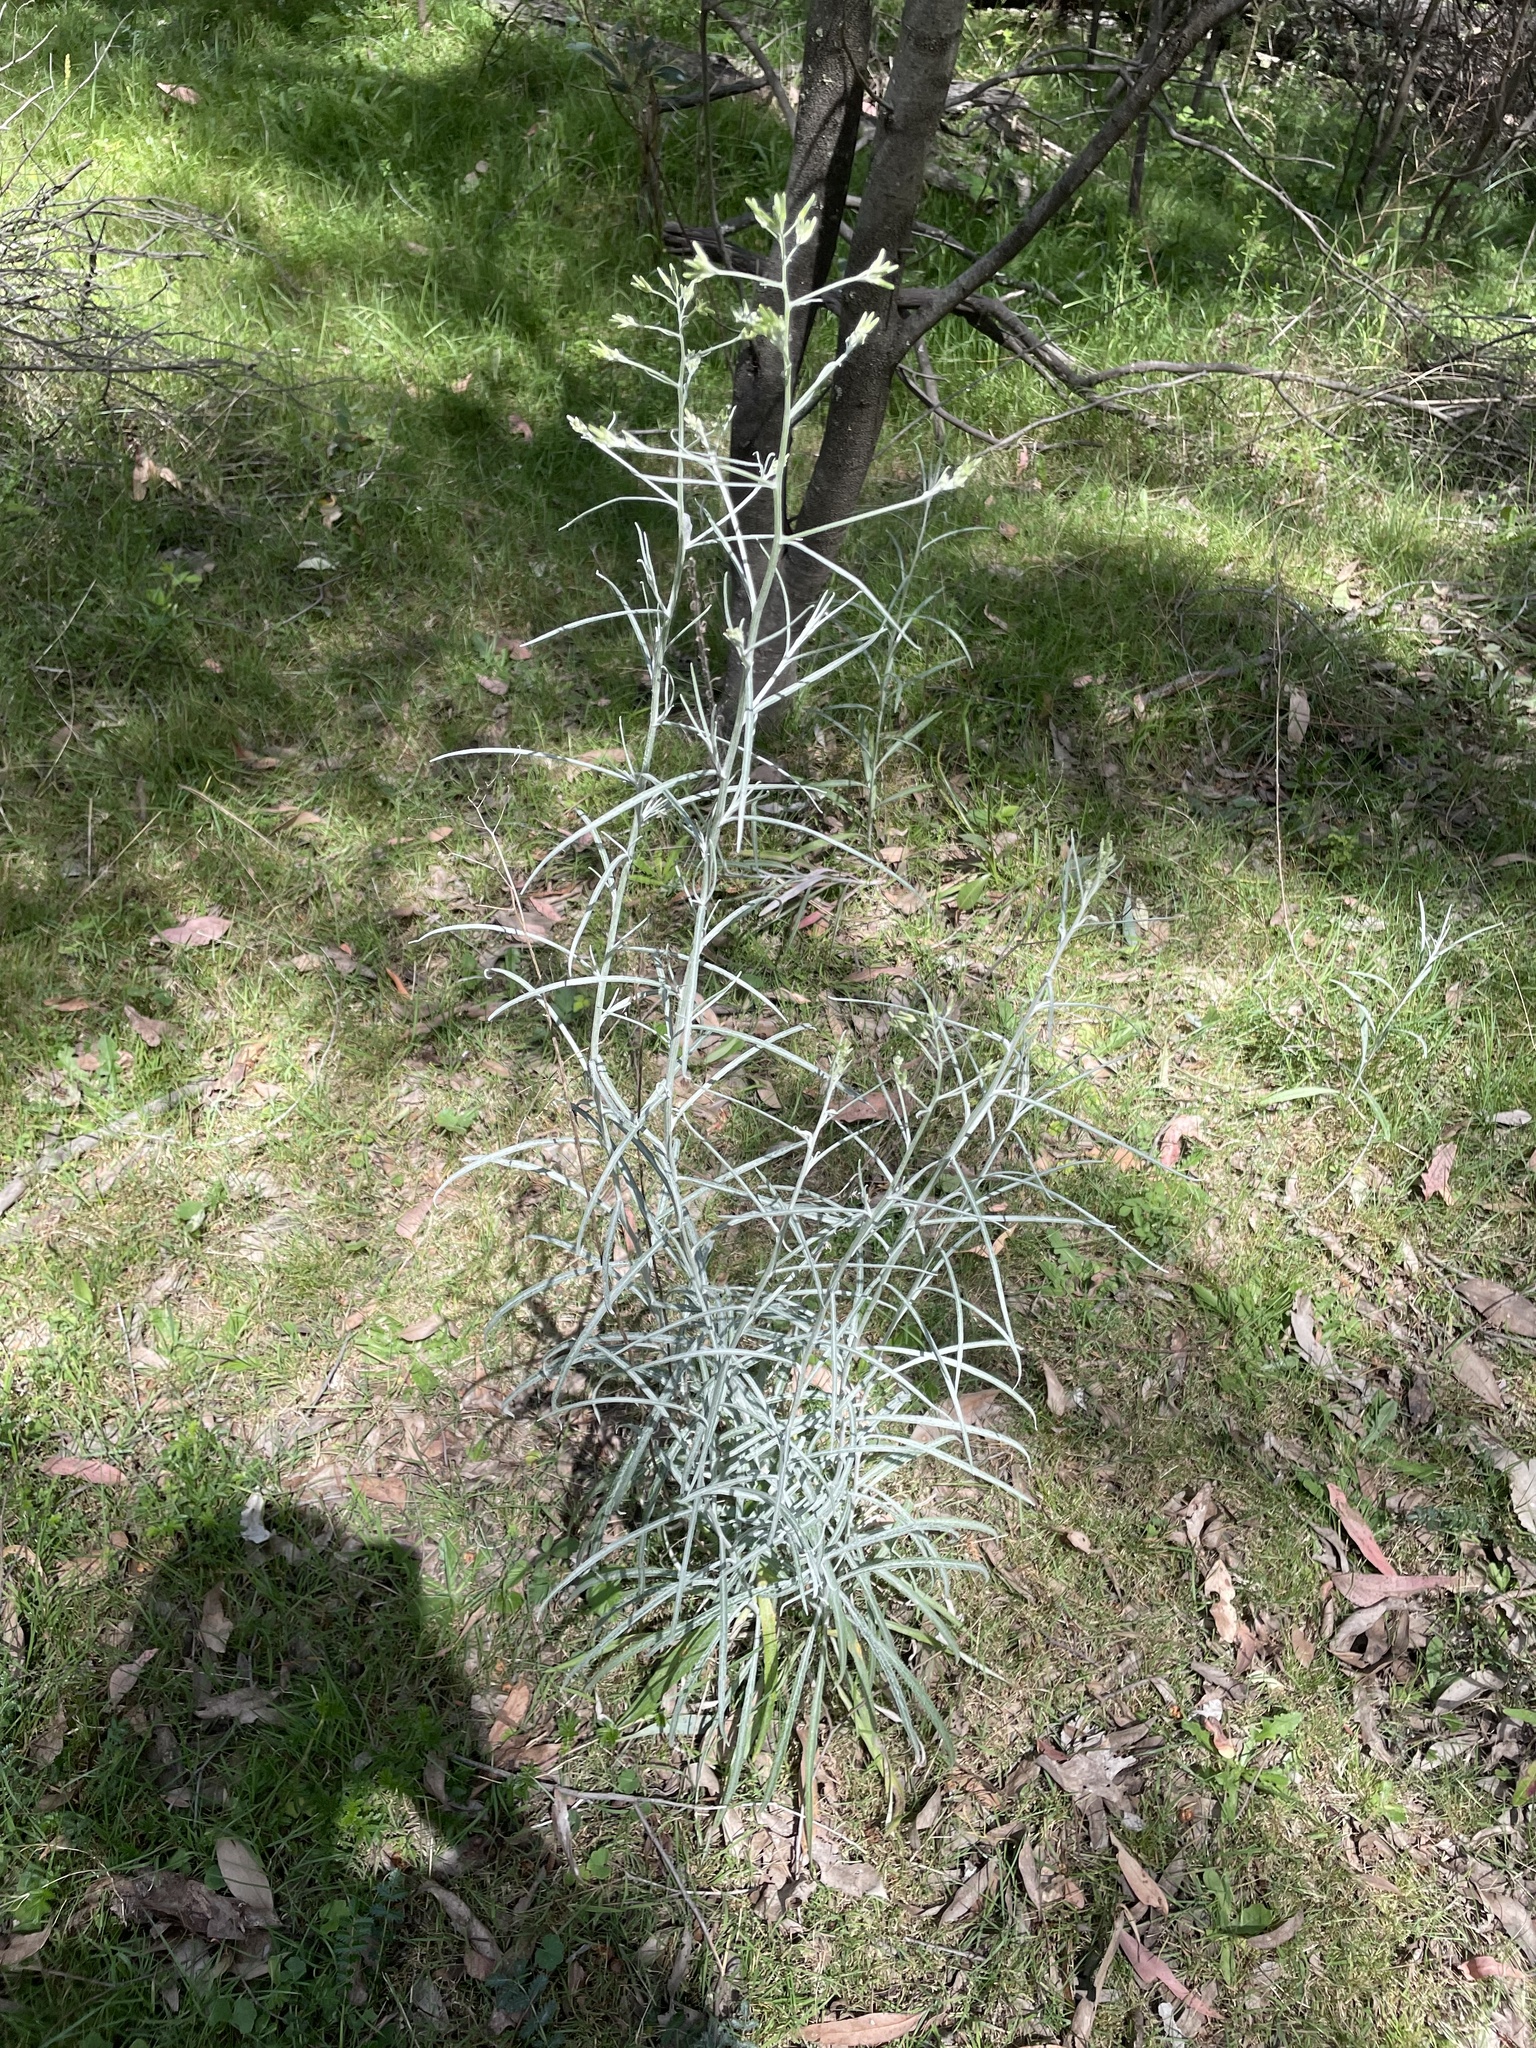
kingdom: Plantae
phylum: Tracheophyta
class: Magnoliopsida
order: Asterales
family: Asteraceae
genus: Senecio
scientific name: Senecio quadridentatus
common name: Cotton fireweed
